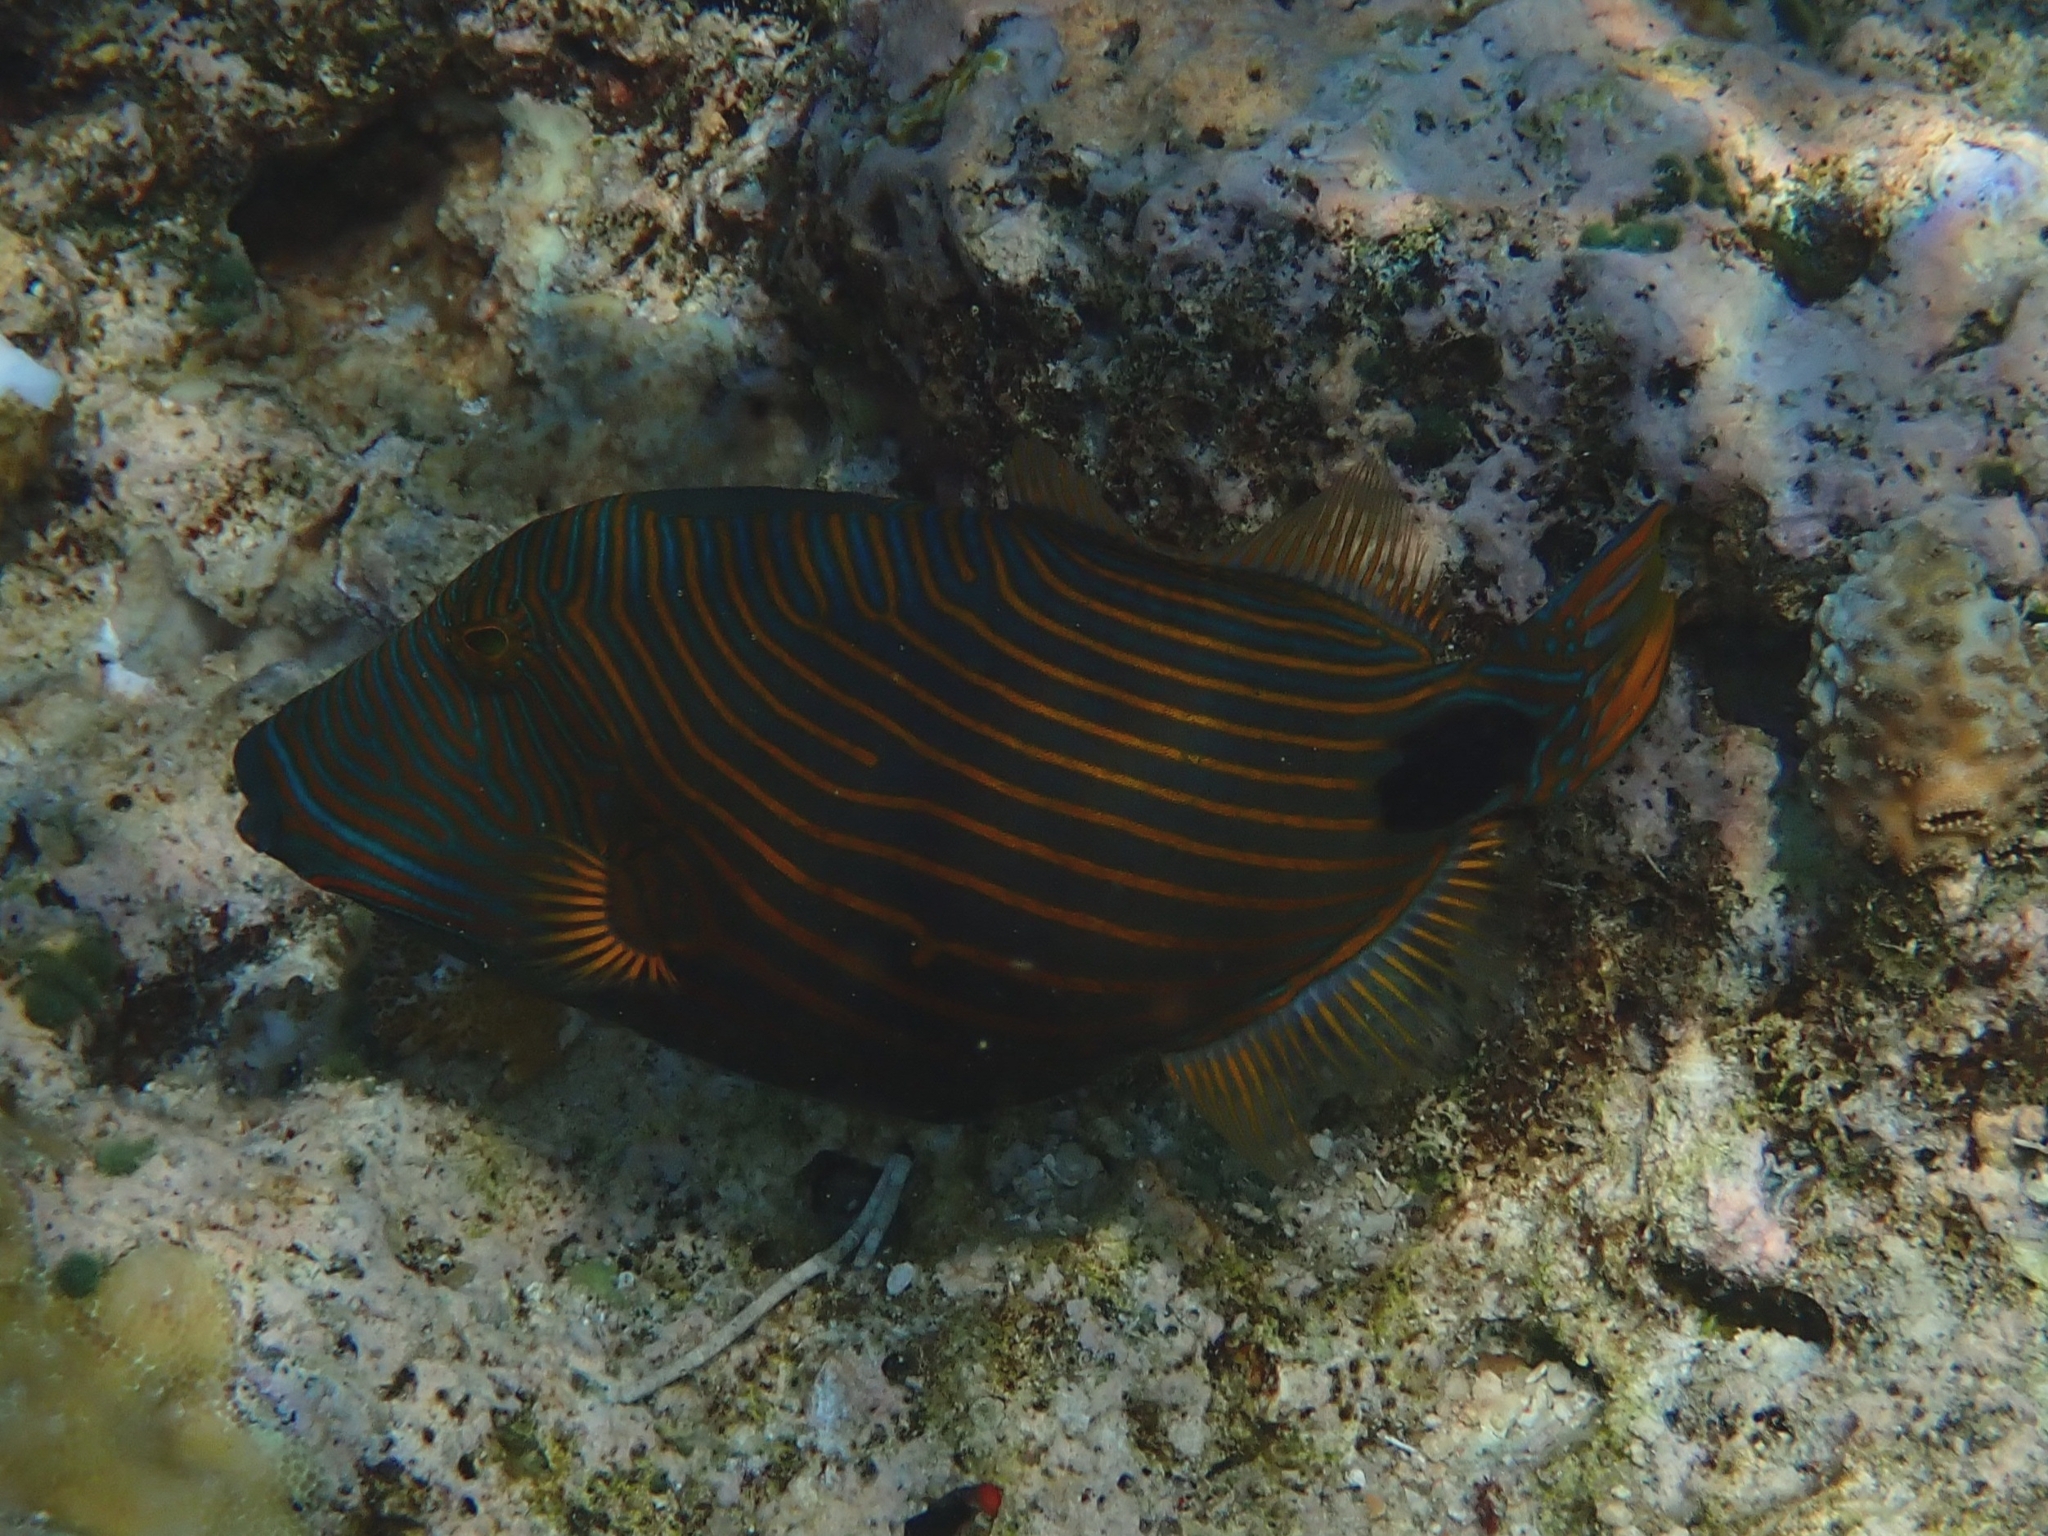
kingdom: Animalia
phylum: Chordata
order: Tetraodontiformes
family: Balistidae
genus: Balistapus
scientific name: Balistapus undulatus
